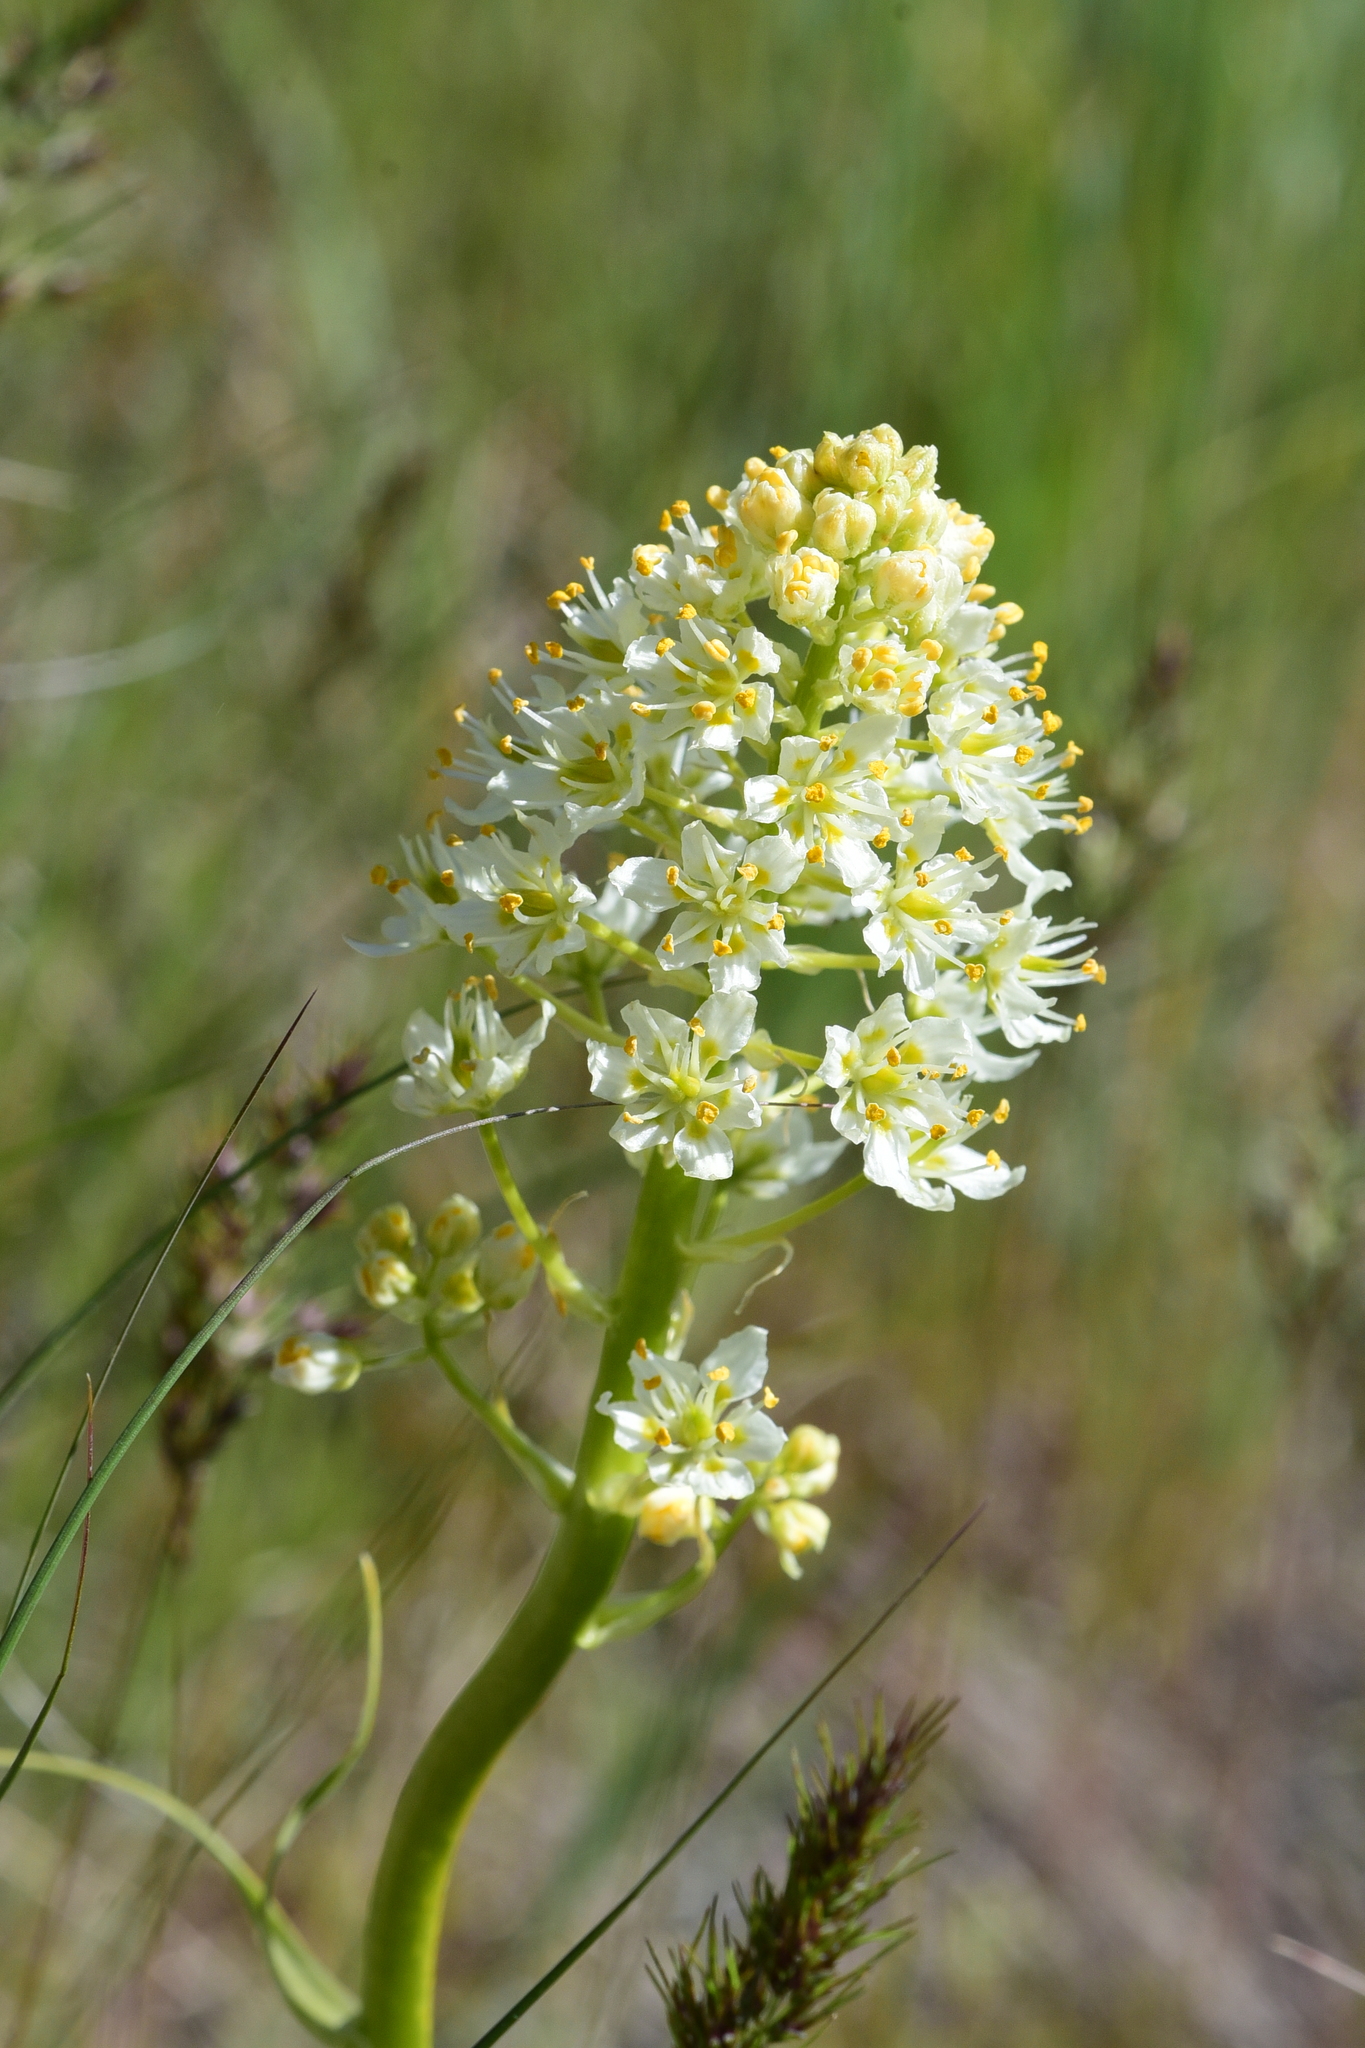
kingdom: Plantae
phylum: Tracheophyta
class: Liliopsida
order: Liliales
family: Melanthiaceae
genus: Toxicoscordion
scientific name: Toxicoscordion venenosum
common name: Meadow death camas
